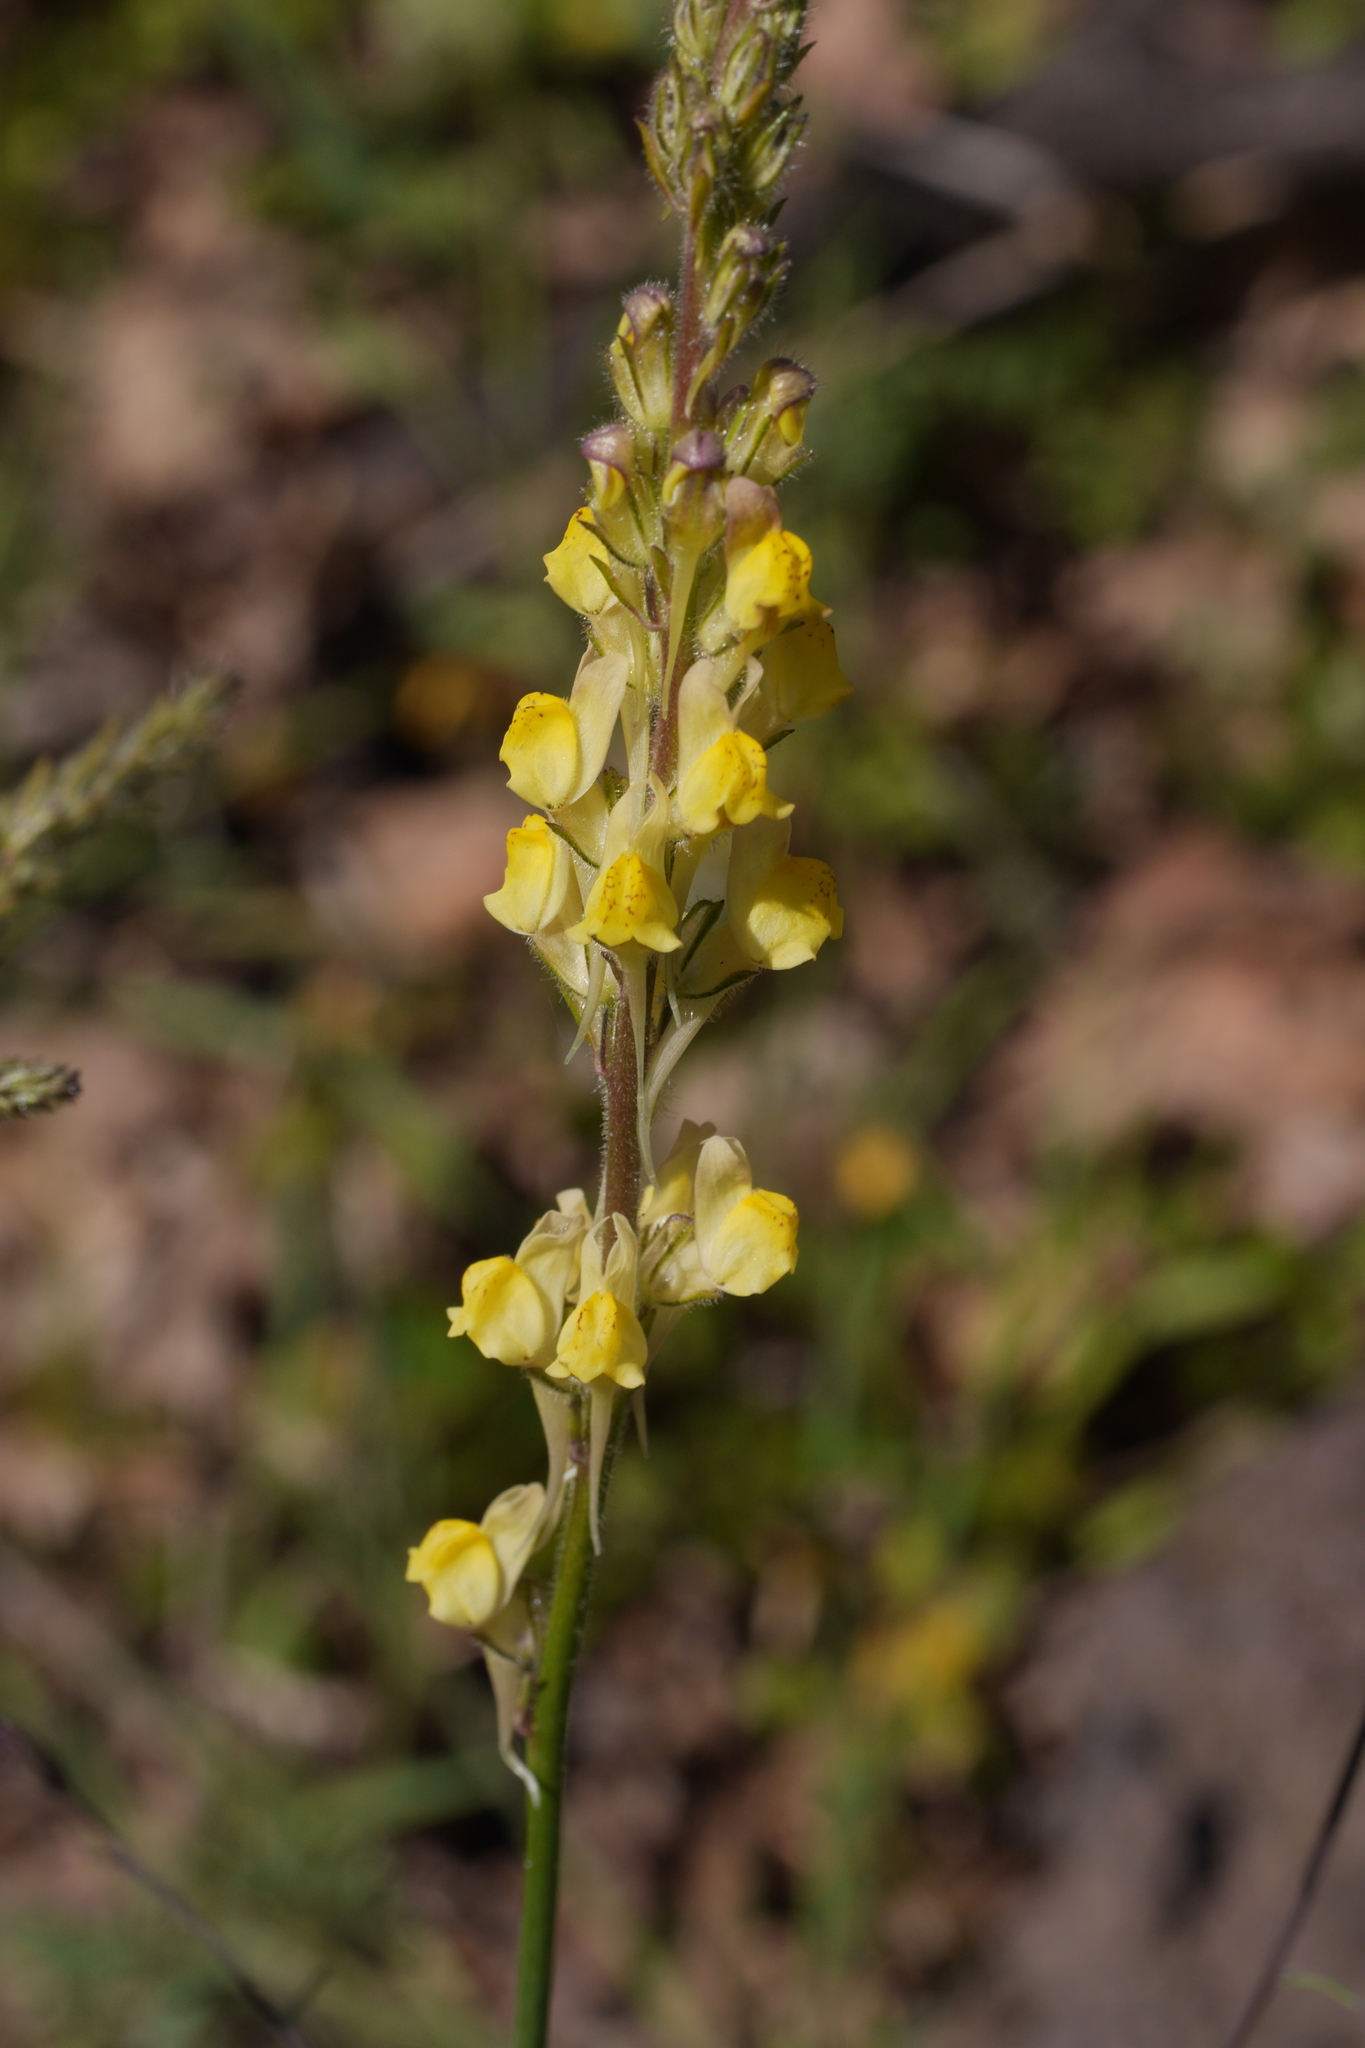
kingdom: Plantae
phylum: Tracheophyta
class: Magnoliopsida
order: Lamiales
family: Plantaginaceae
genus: Linaria
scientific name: Linaria multicaulis
